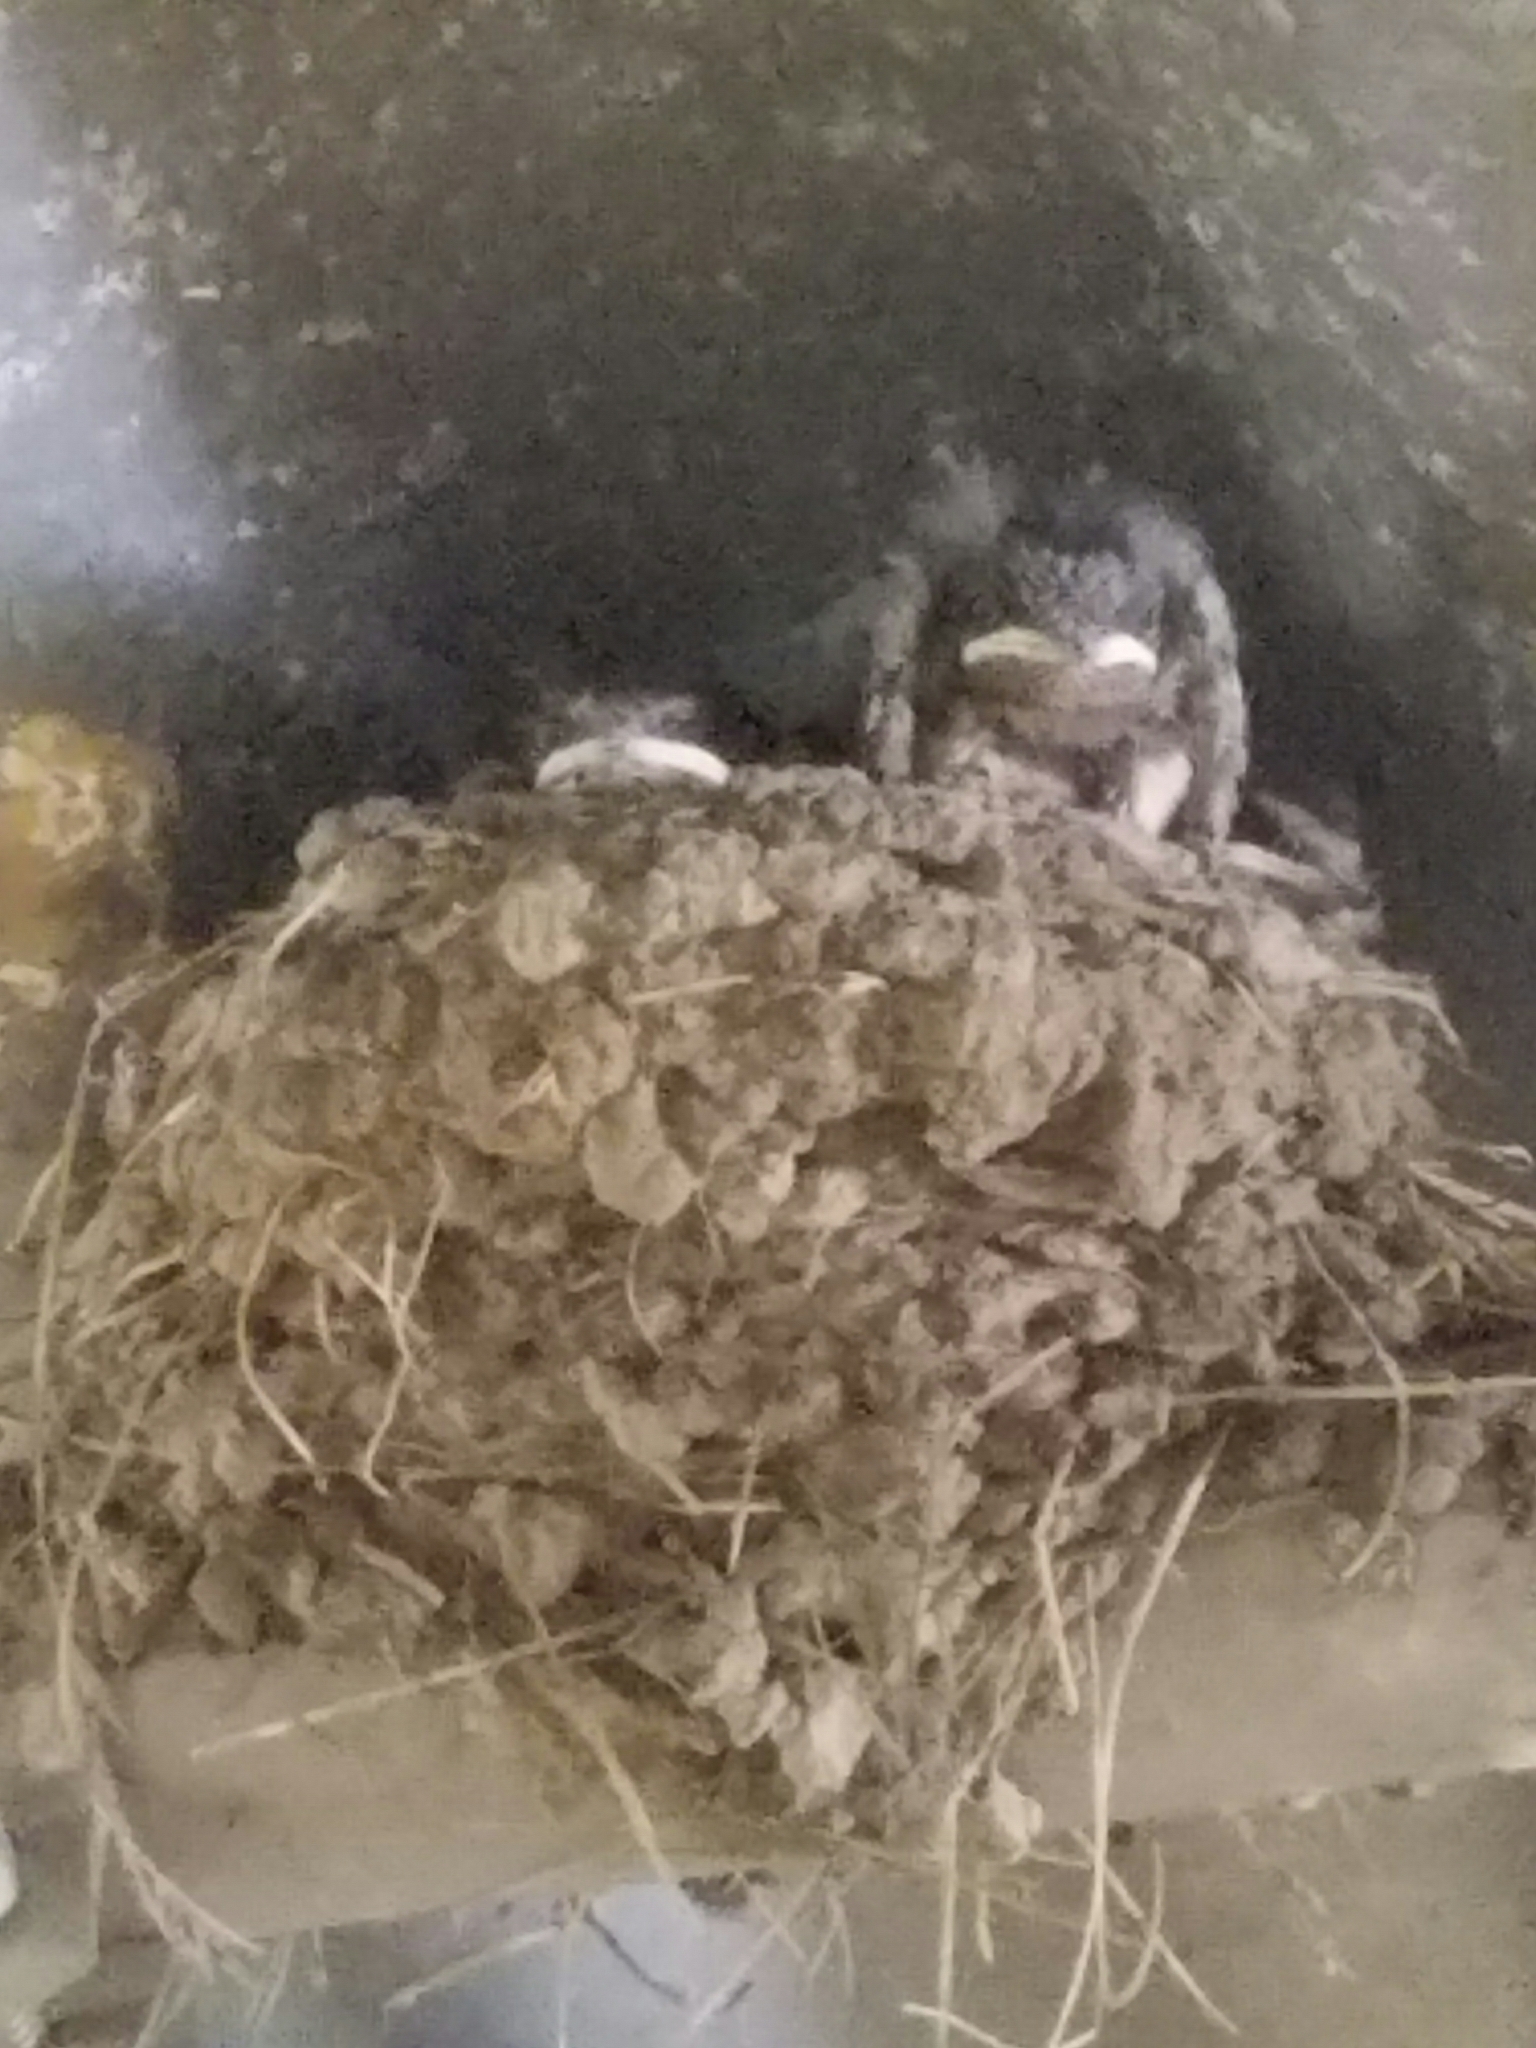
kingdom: Animalia
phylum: Chordata
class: Aves
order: Passeriformes
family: Hirundinidae
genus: Hirundo
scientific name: Hirundo rustica
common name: Barn swallow
